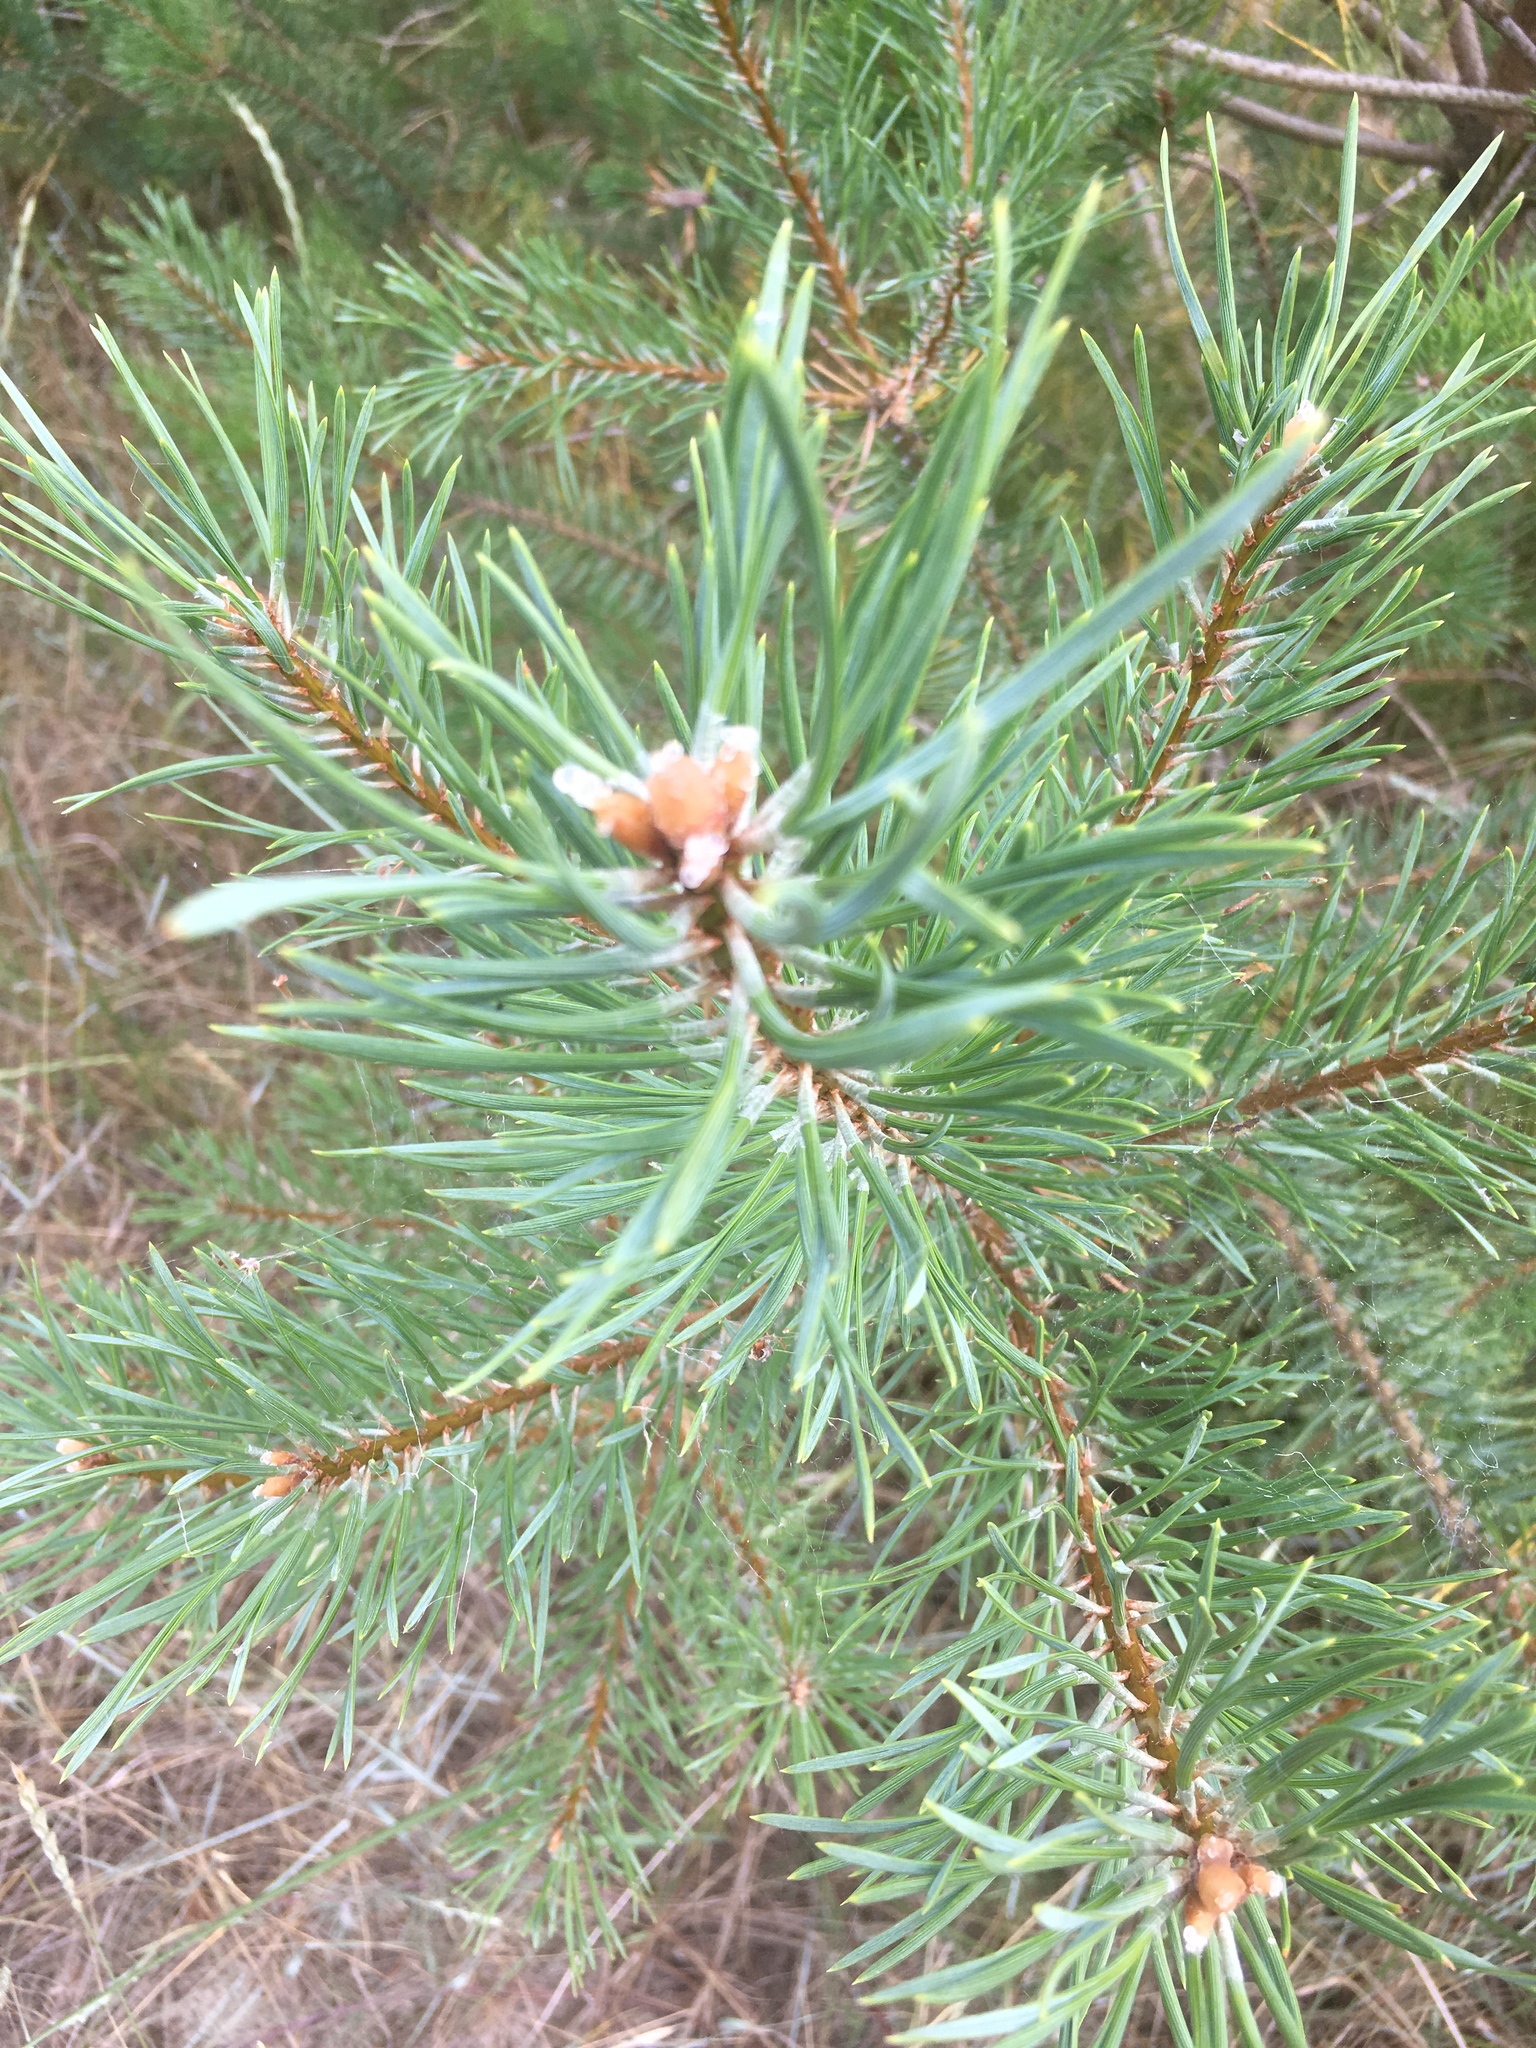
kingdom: Plantae
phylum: Tracheophyta
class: Pinopsida
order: Pinales
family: Pinaceae
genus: Pinus
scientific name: Pinus sylvestris
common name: Scots pine
